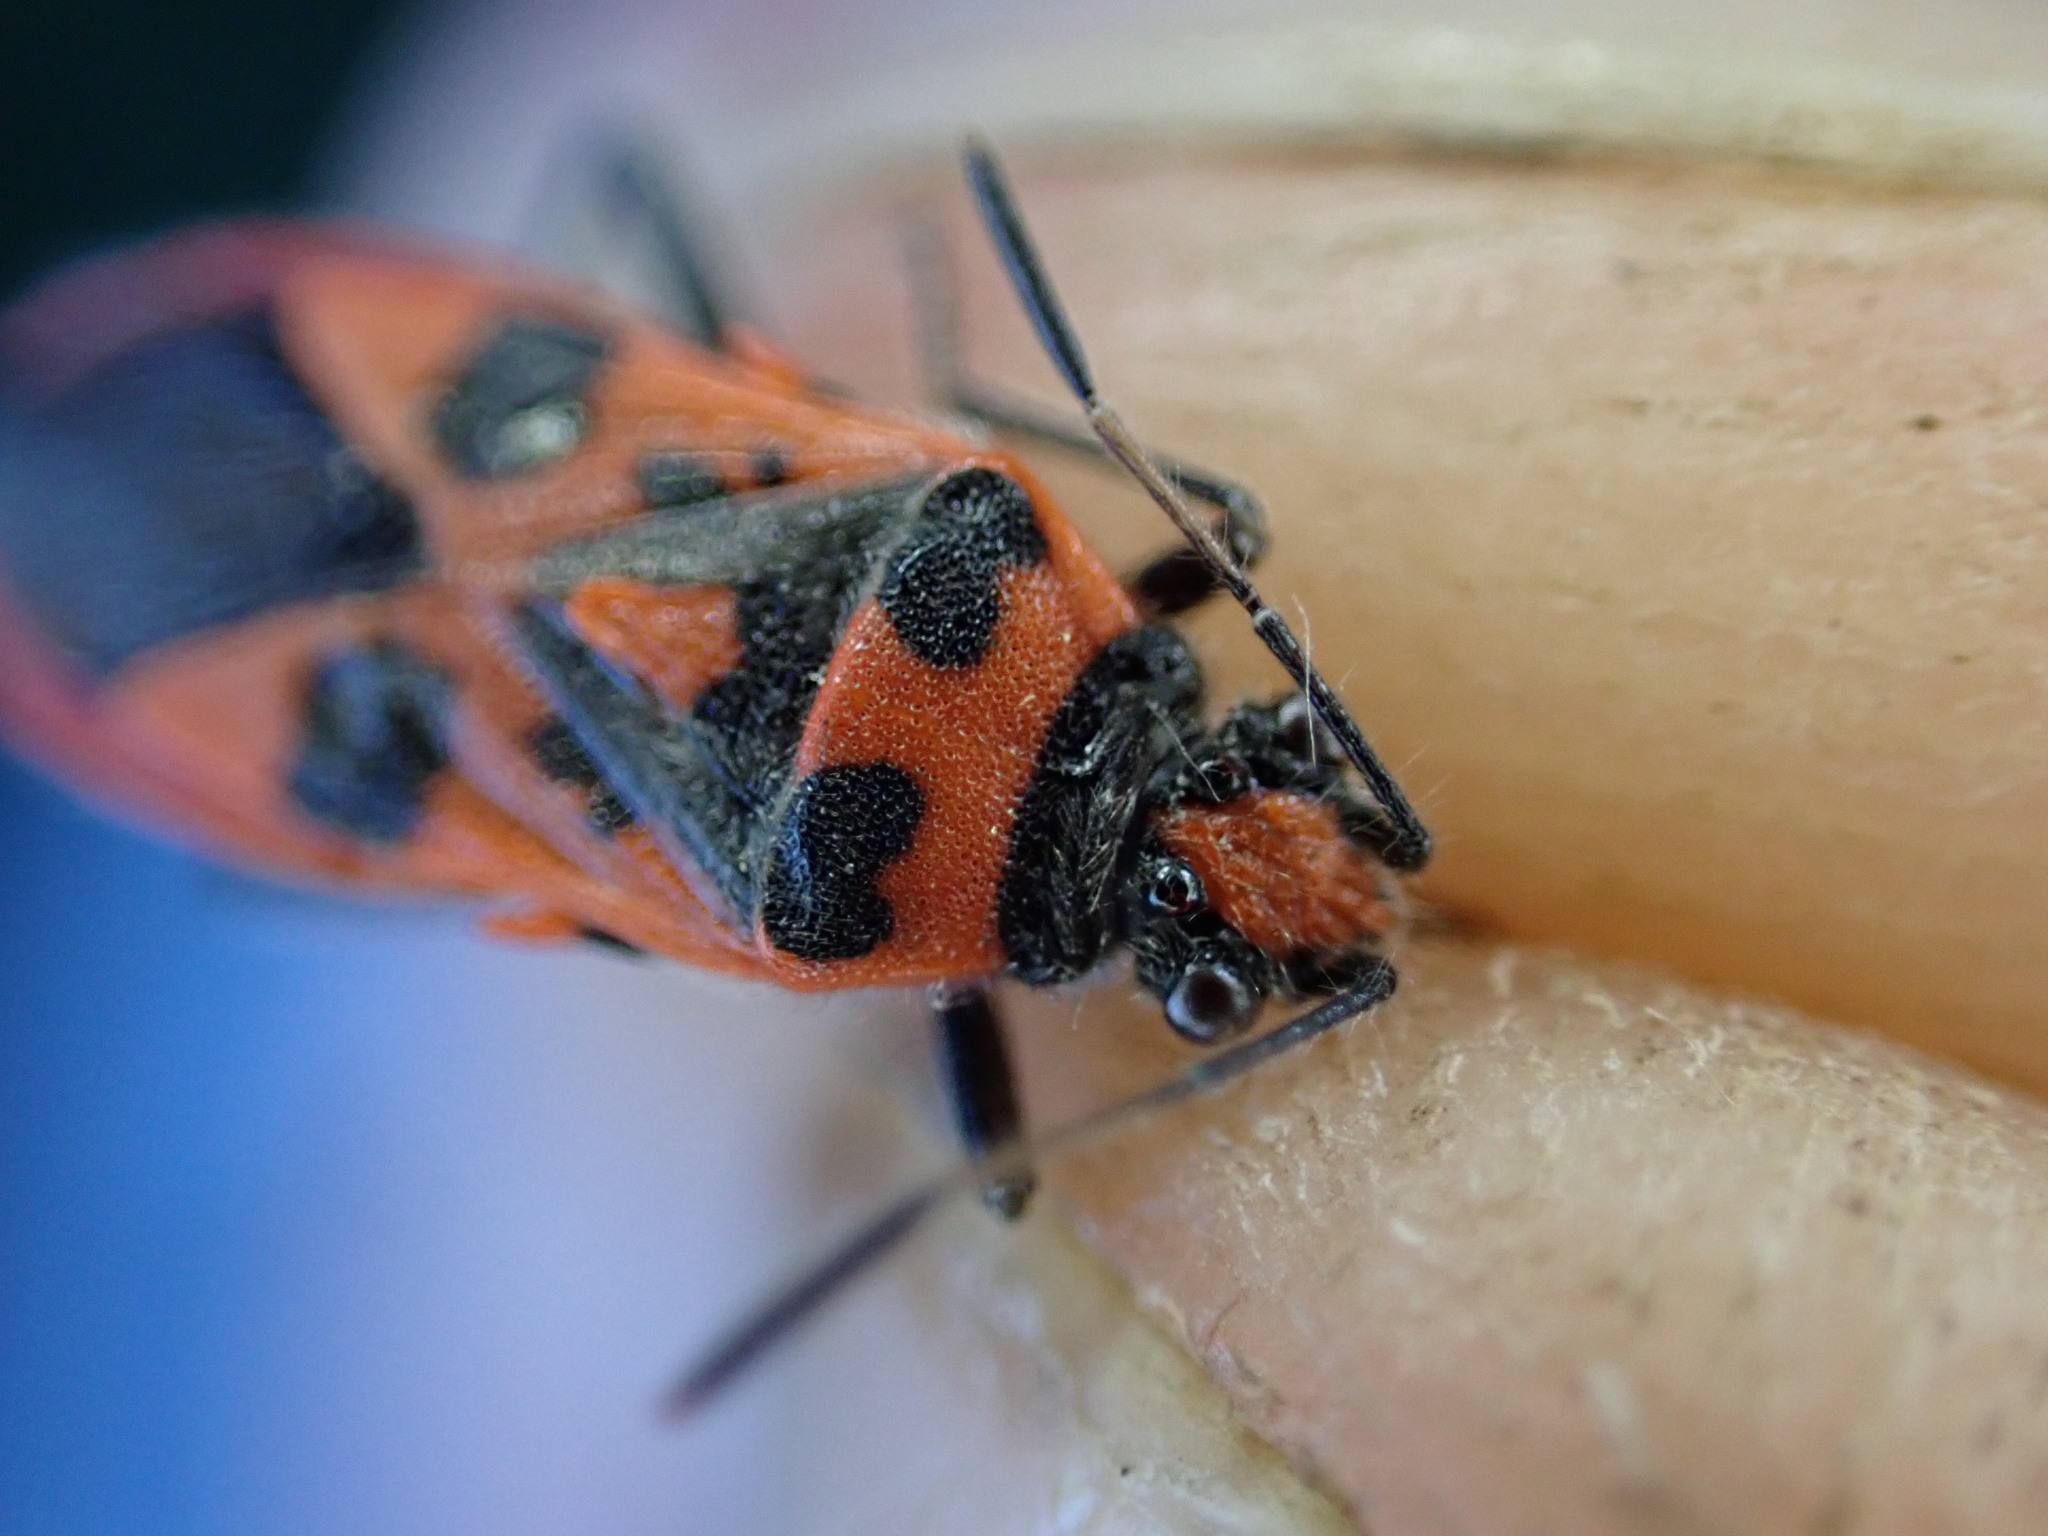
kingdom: Animalia
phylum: Arthropoda
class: Insecta
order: Hemiptera
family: Rhopalidae
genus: Corizus
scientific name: Corizus hyoscyami
